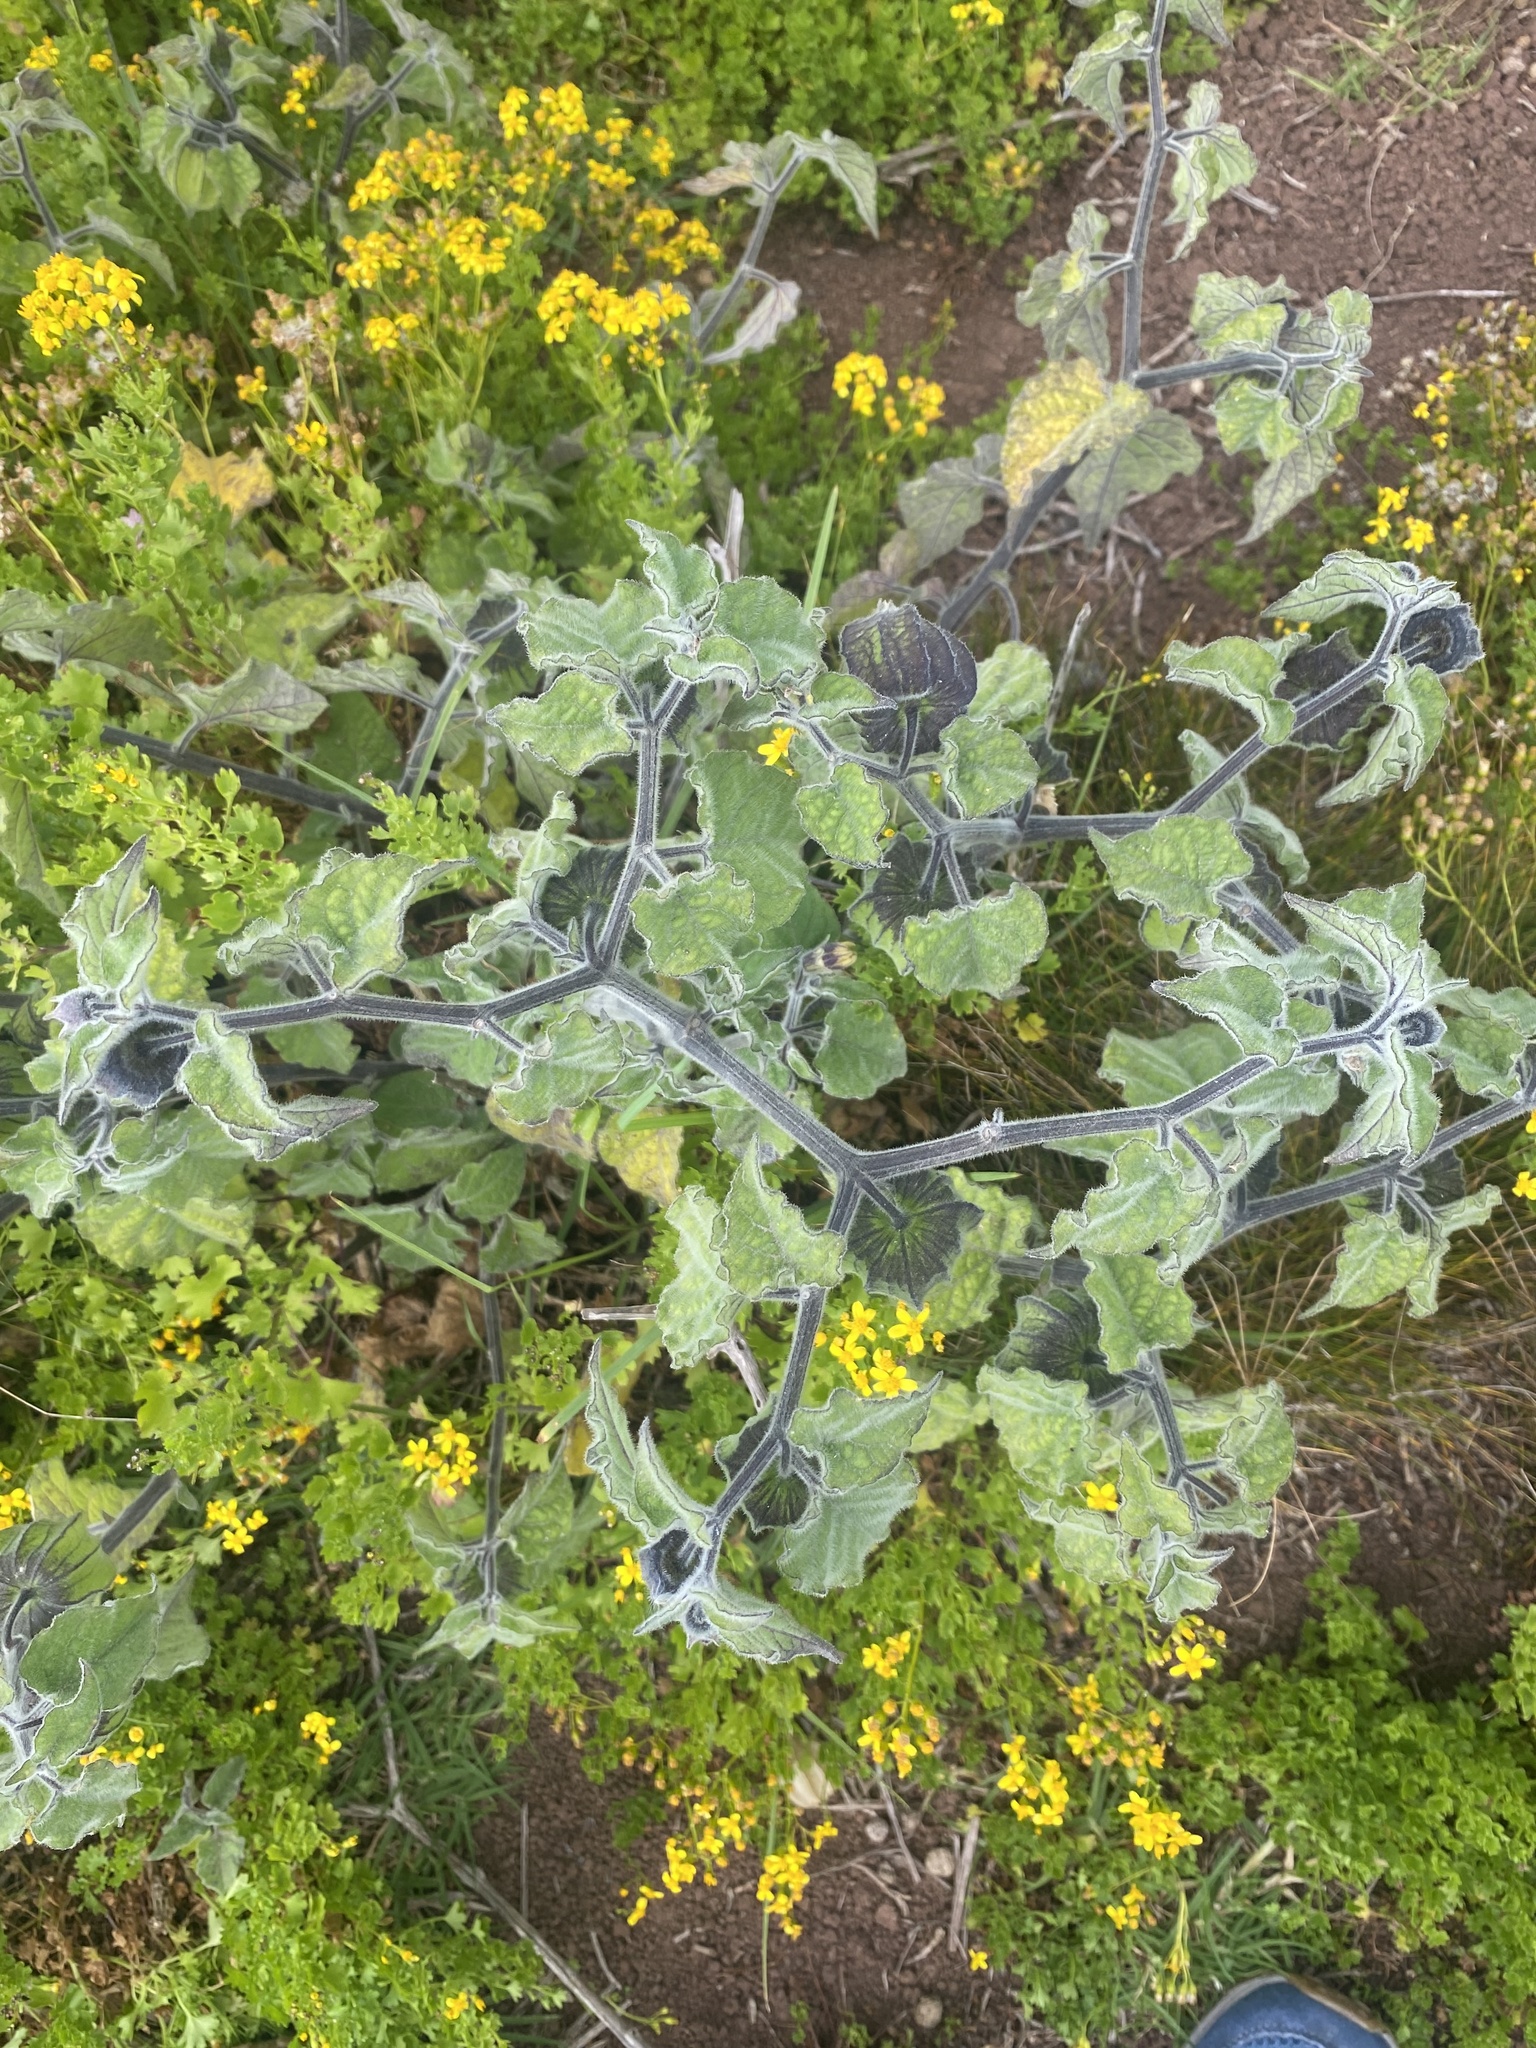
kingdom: Plantae
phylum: Tracheophyta
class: Magnoliopsida
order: Solanales
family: Solanaceae
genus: Physalis
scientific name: Physalis peruviana
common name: Cape-gooseberry
